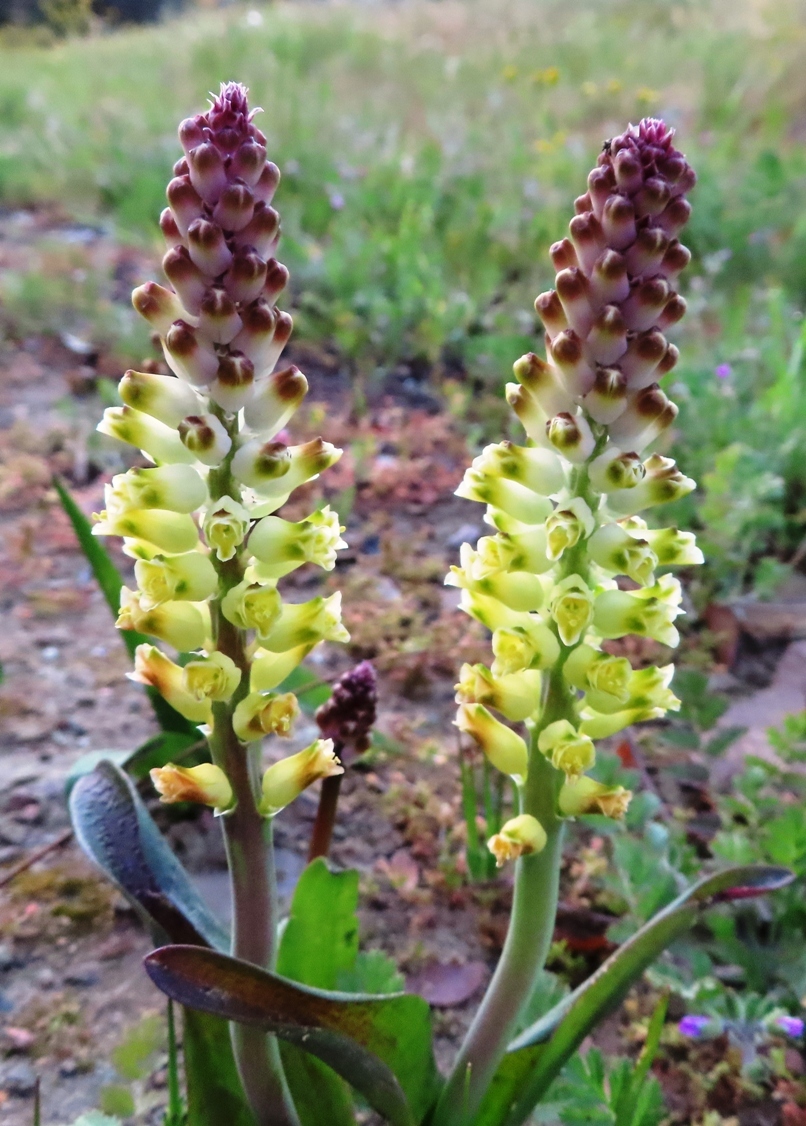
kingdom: Plantae
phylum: Tracheophyta
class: Liliopsida
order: Asparagales
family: Asparagaceae
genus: Lachenalia
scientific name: Lachenalia pallida
